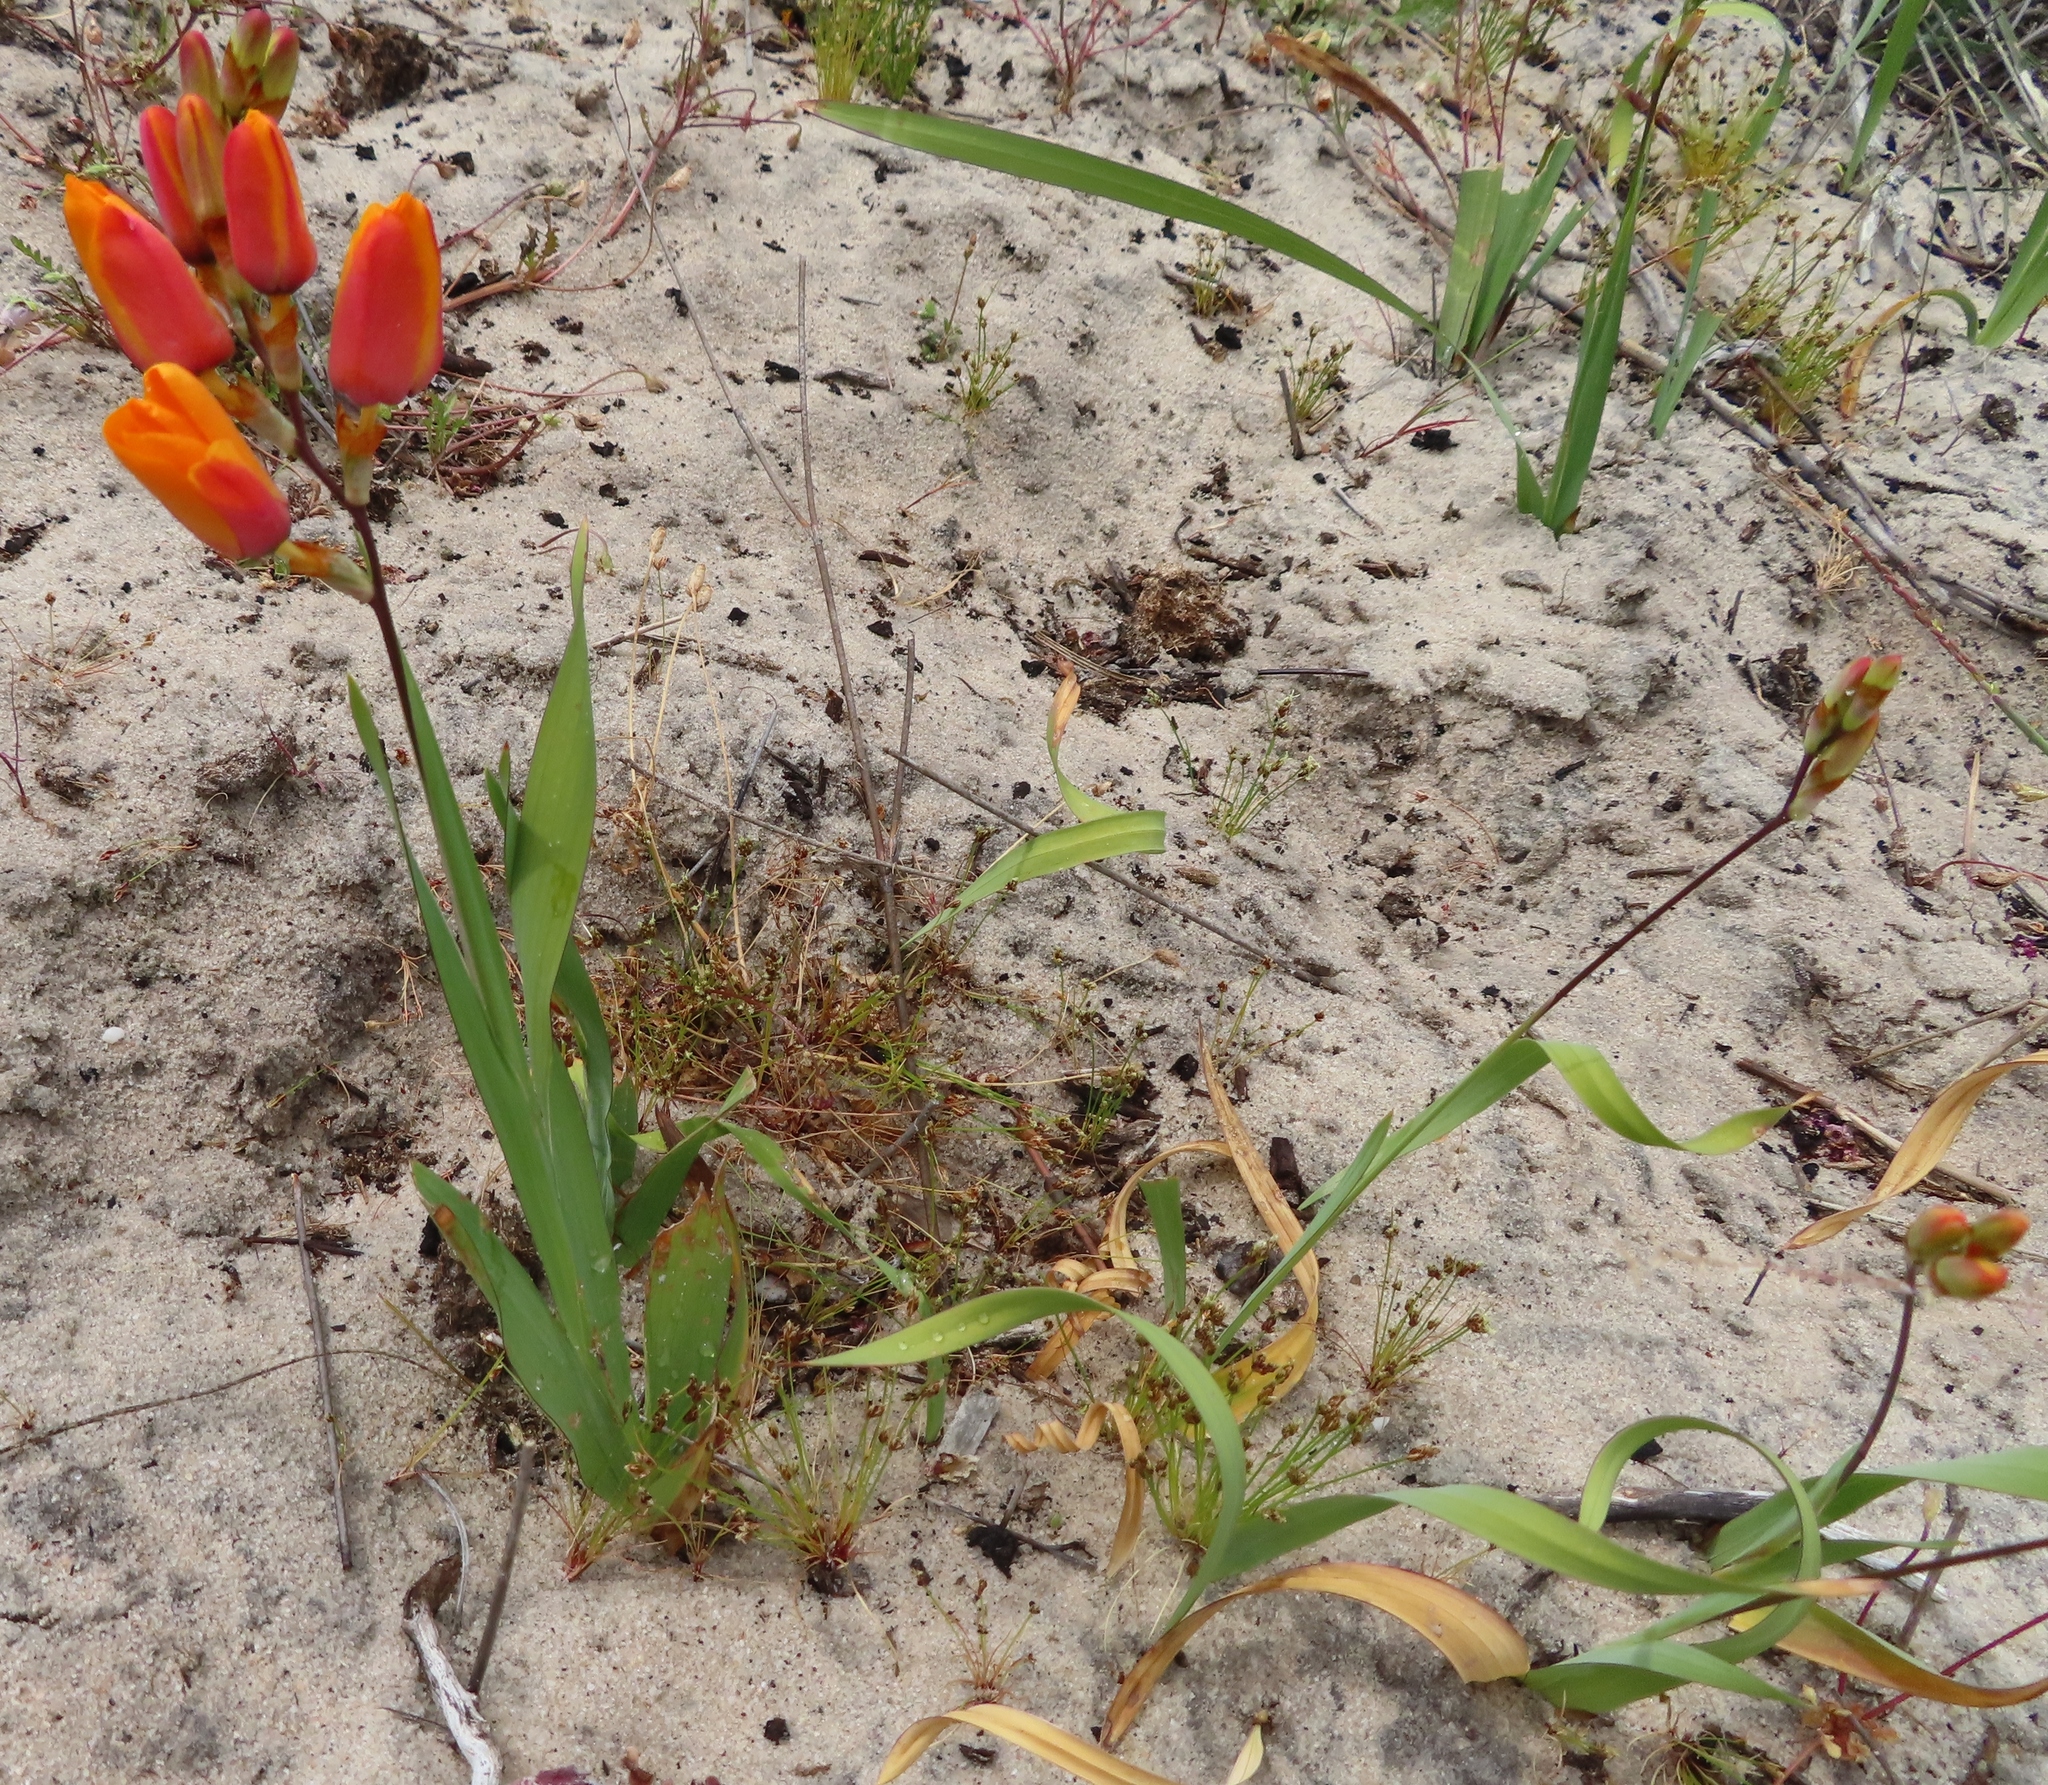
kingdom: Plantae
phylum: Tracheophyta
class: Liliopsida
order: Asparagales
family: Iridaceae
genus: Ixia
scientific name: Ixia calendulacea
